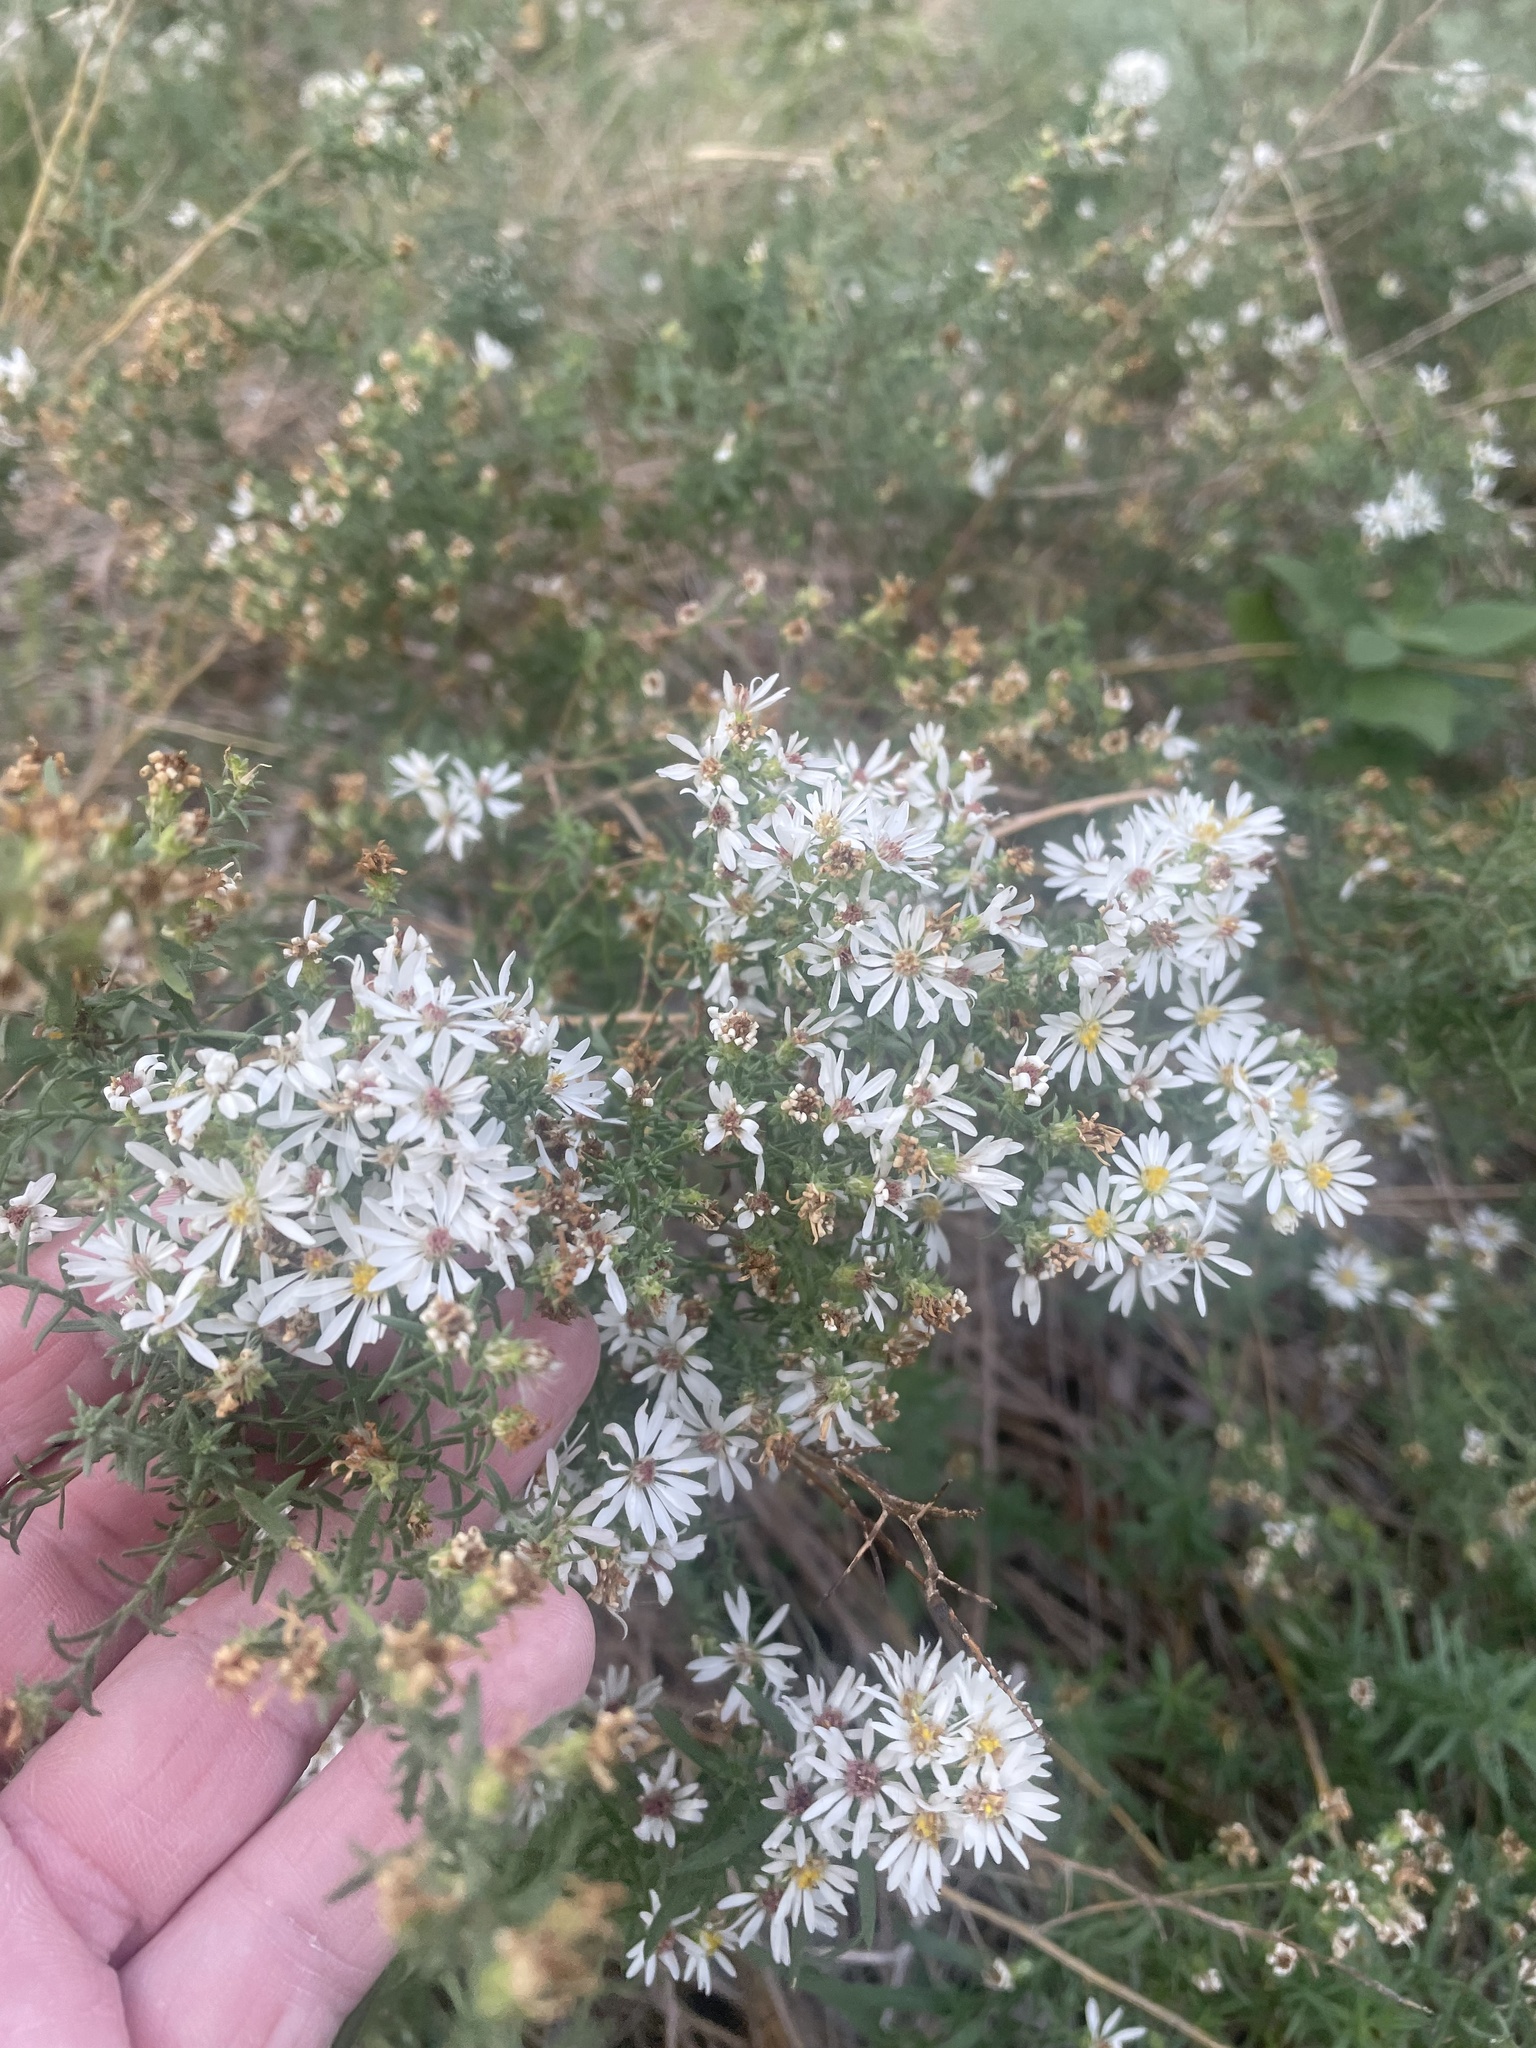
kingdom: Plantae
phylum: Tracheophyta
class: Magnoliopsida
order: Asterales
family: Asteraceae
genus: Symphyotrichum
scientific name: Symphyotrichum ericoides
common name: Heath aster
